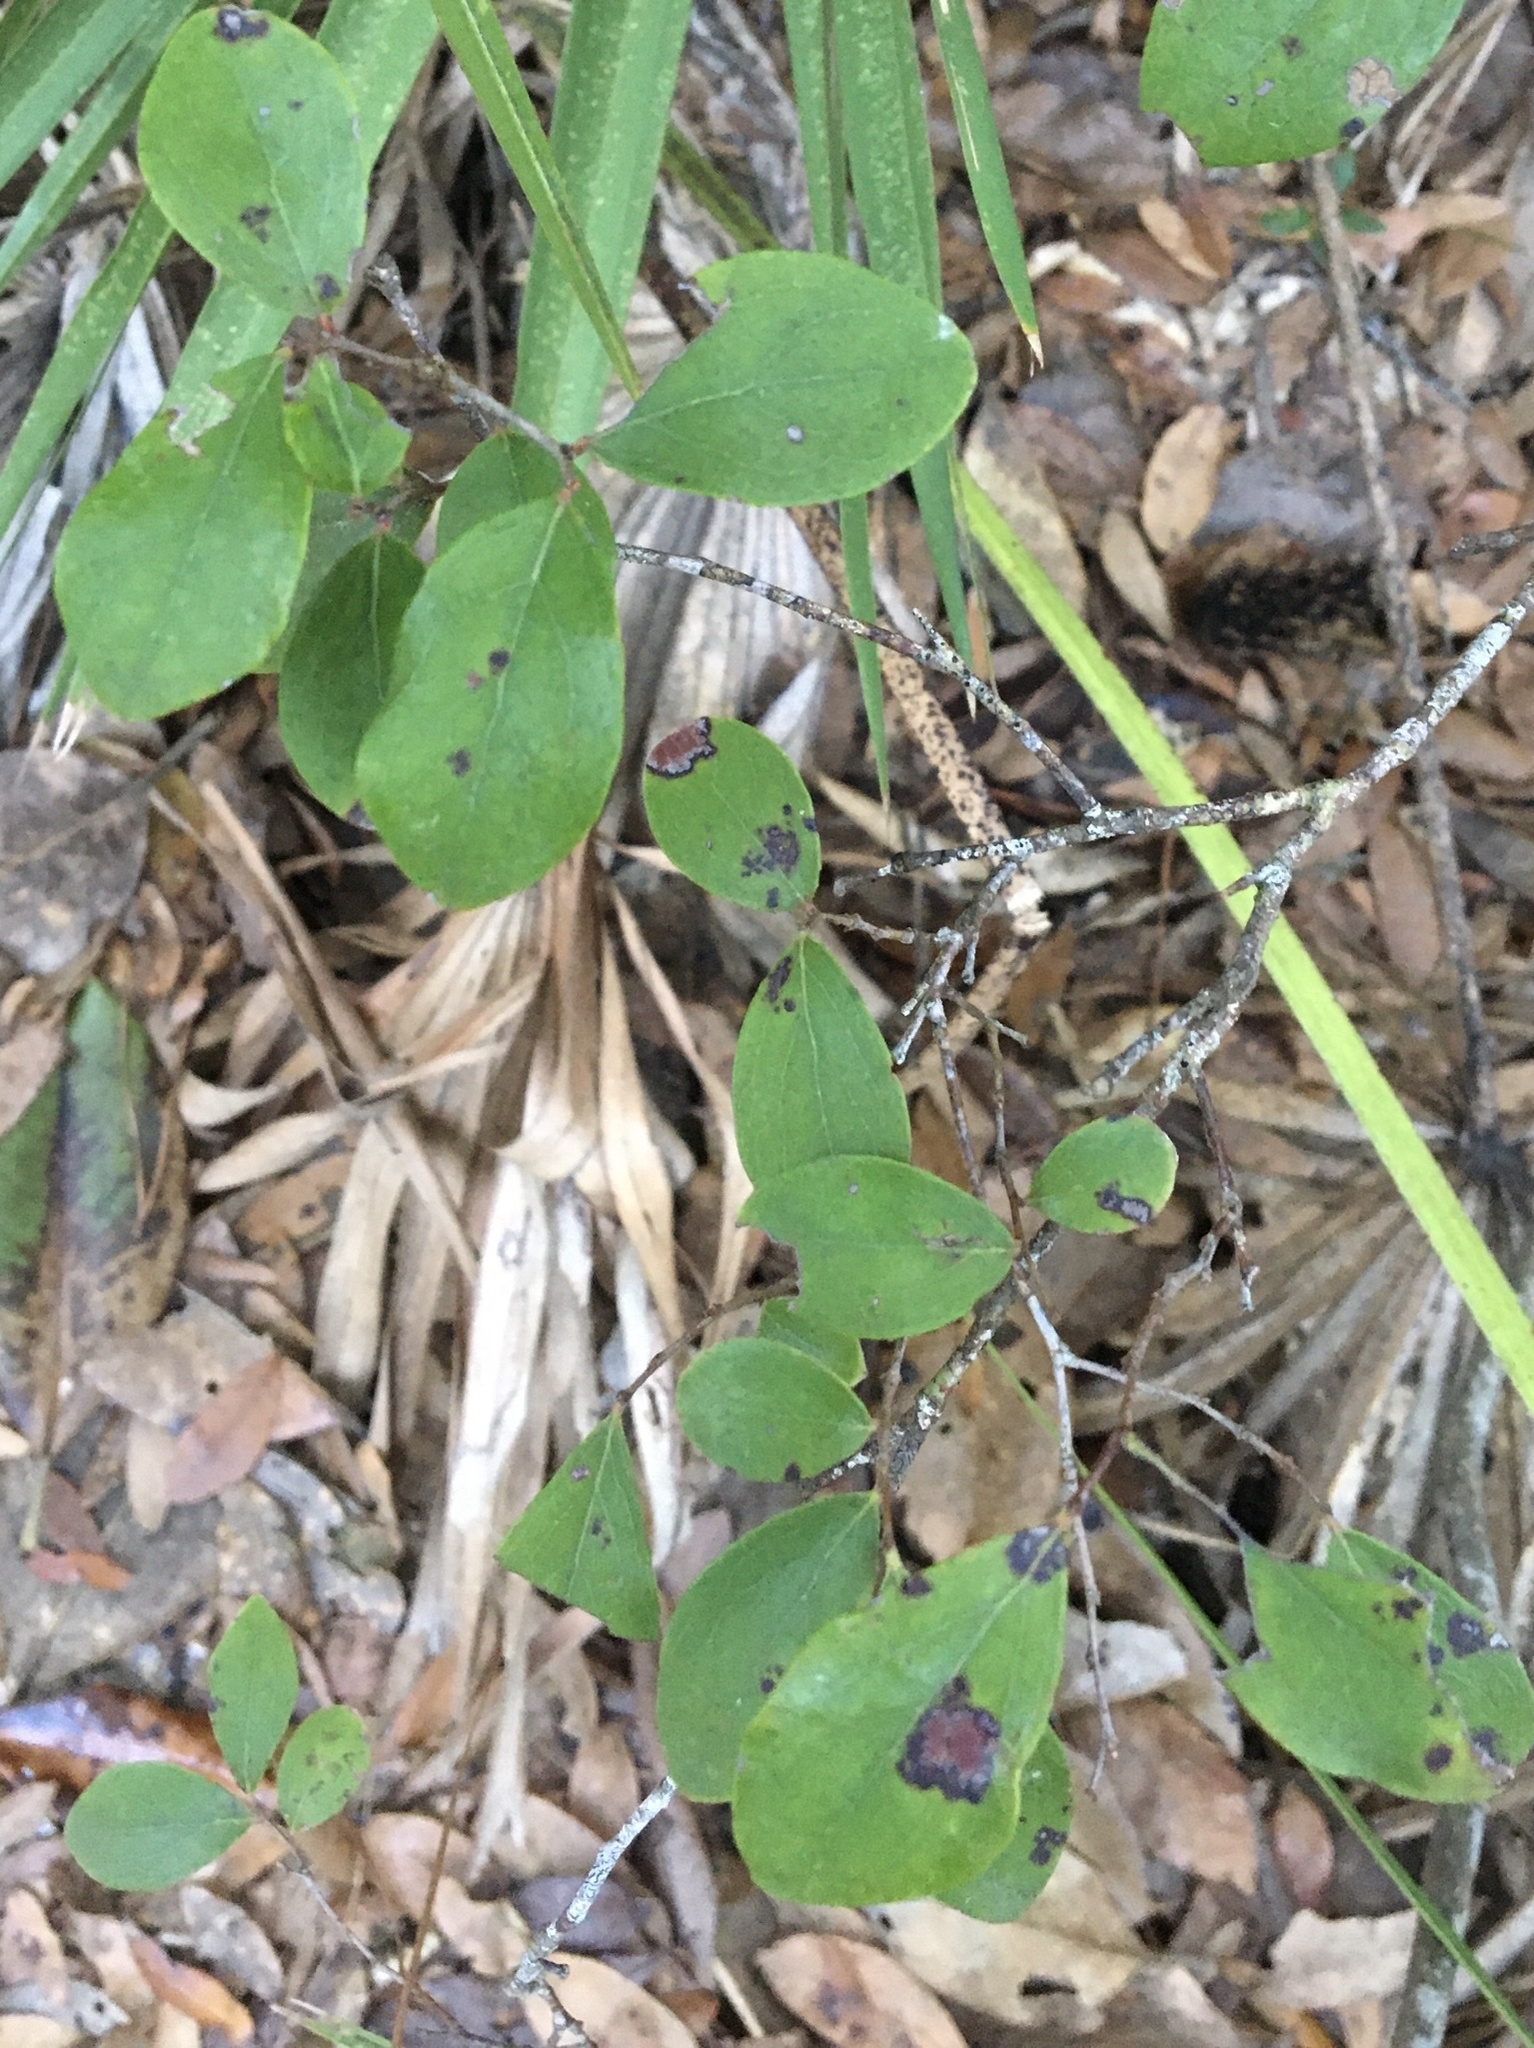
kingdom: Plantae
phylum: Tracheophyta
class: Magnoliopsida
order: Ericales
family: Ericaceae
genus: Vaccinium
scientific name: Vaccinium arboreum
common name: Farkleberry
